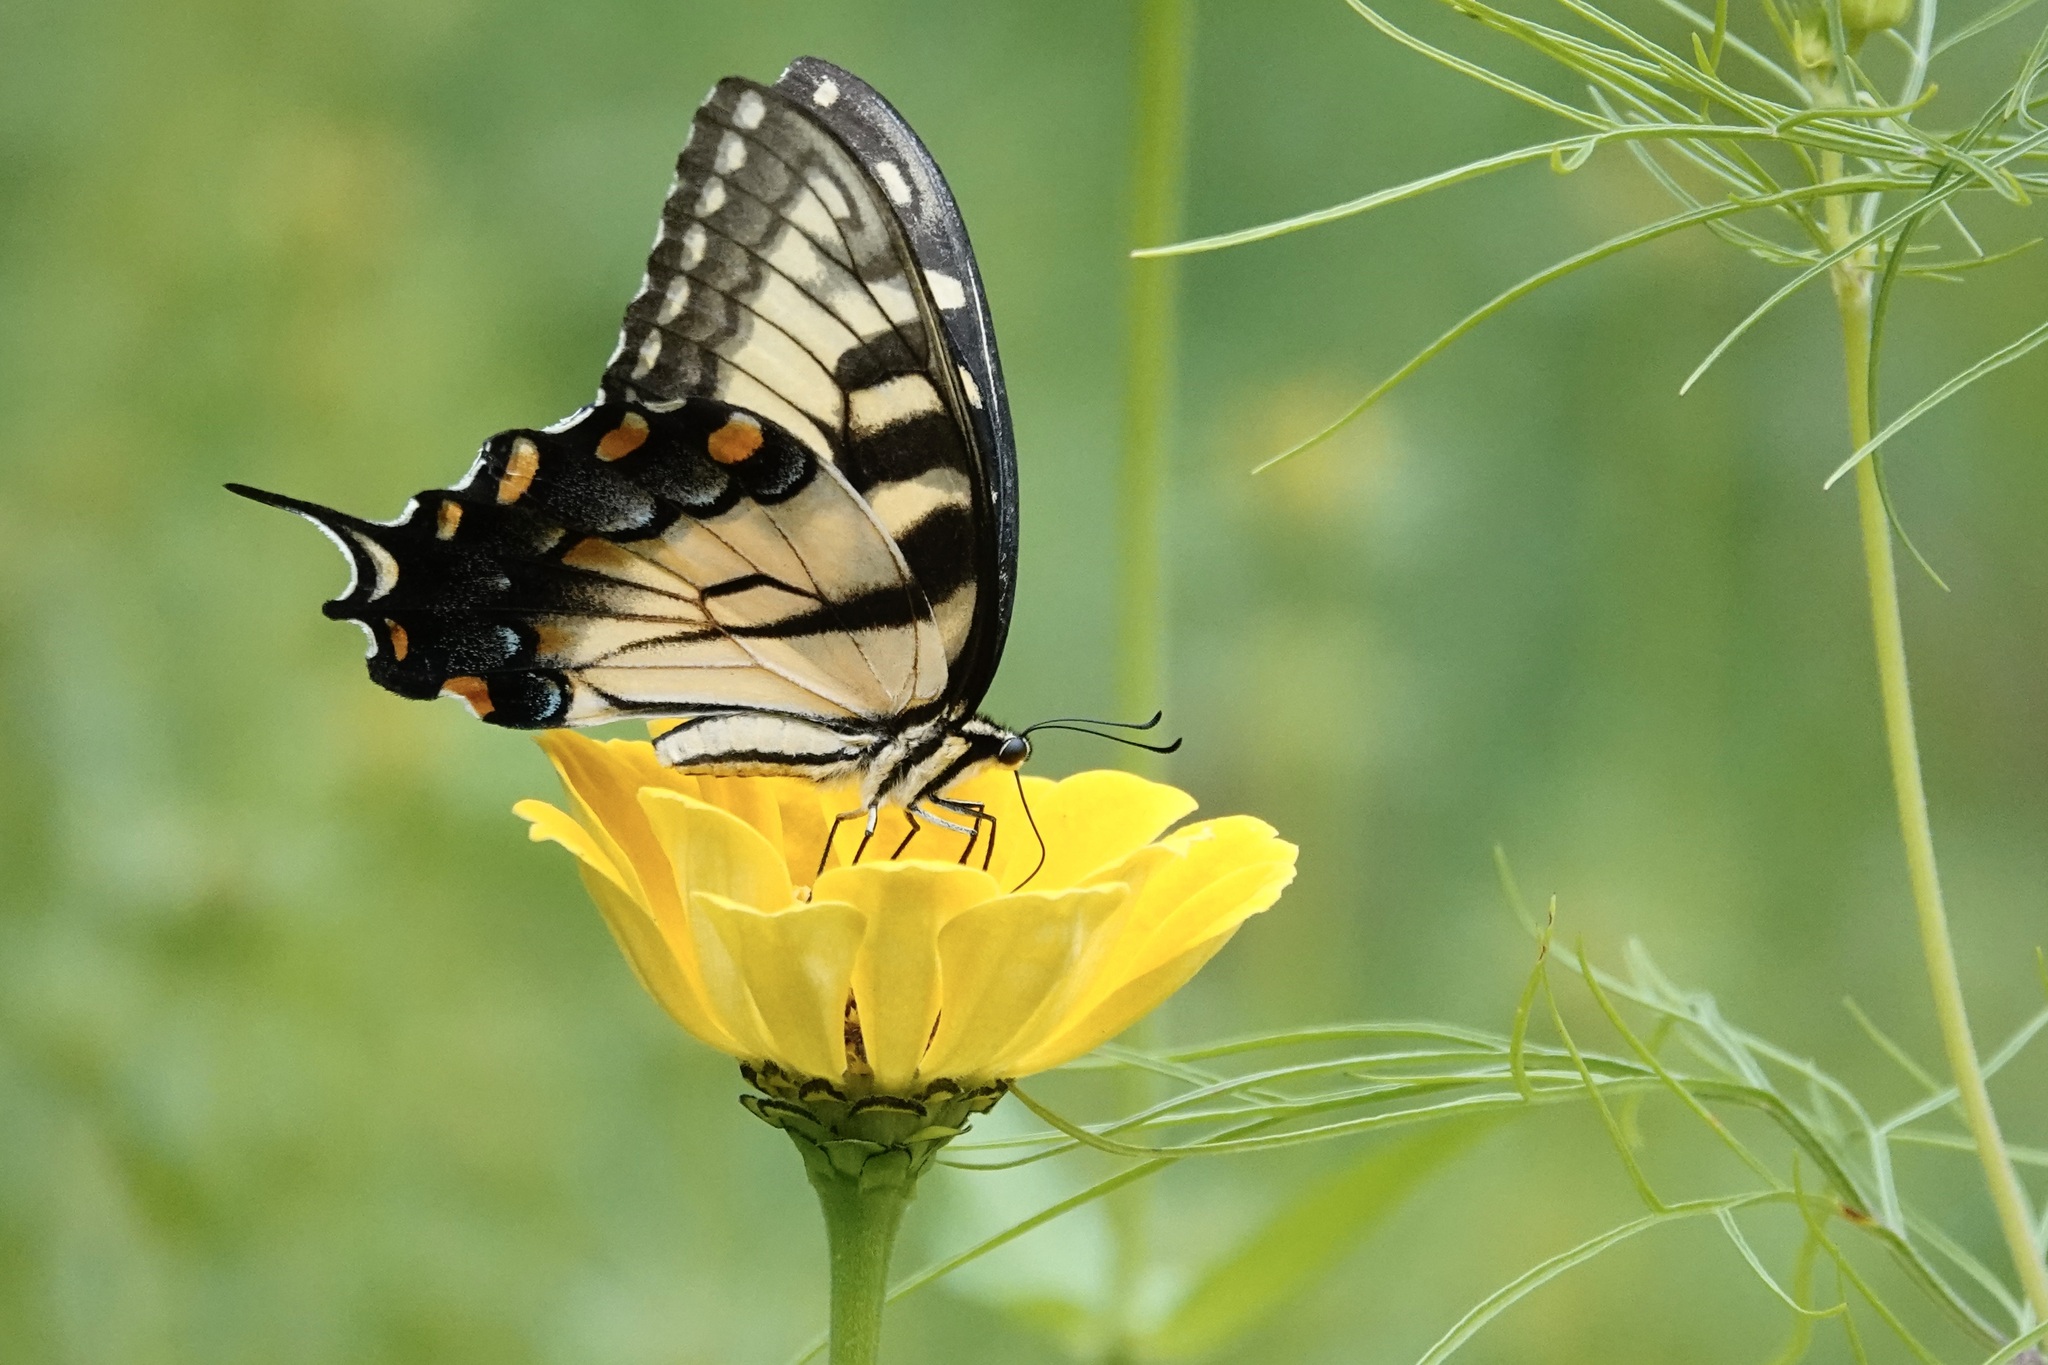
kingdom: Animalia
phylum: Arthropoda
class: Insecta
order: Lepidoptera
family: Papilionidae
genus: Papilio
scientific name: Papilio glaucus
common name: Tiger swallowtail
